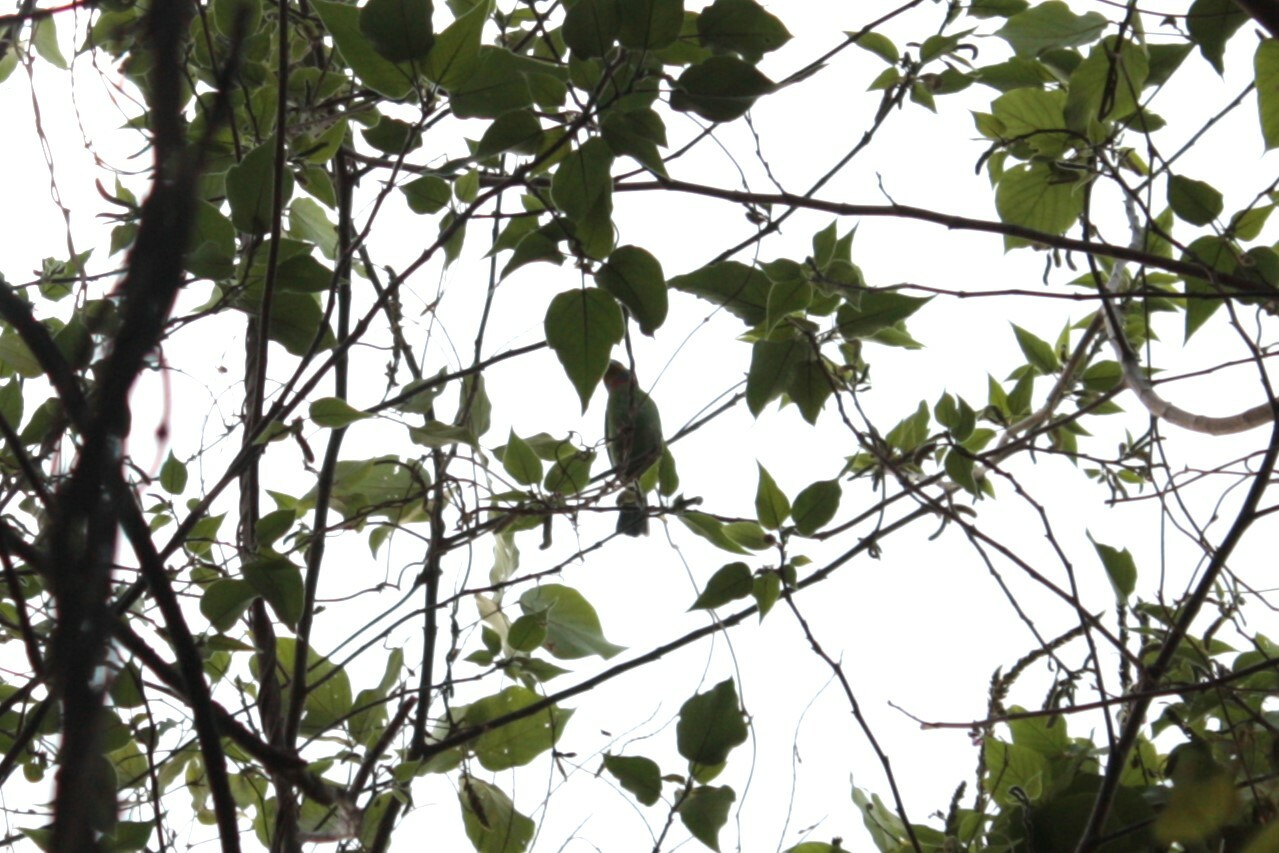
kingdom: Animalia
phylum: Chordata
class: Aves
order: Piciformes
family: Megalaimidae
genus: Psilopogon
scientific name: Psilopogon nuchalis
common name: Taiwan barbet
